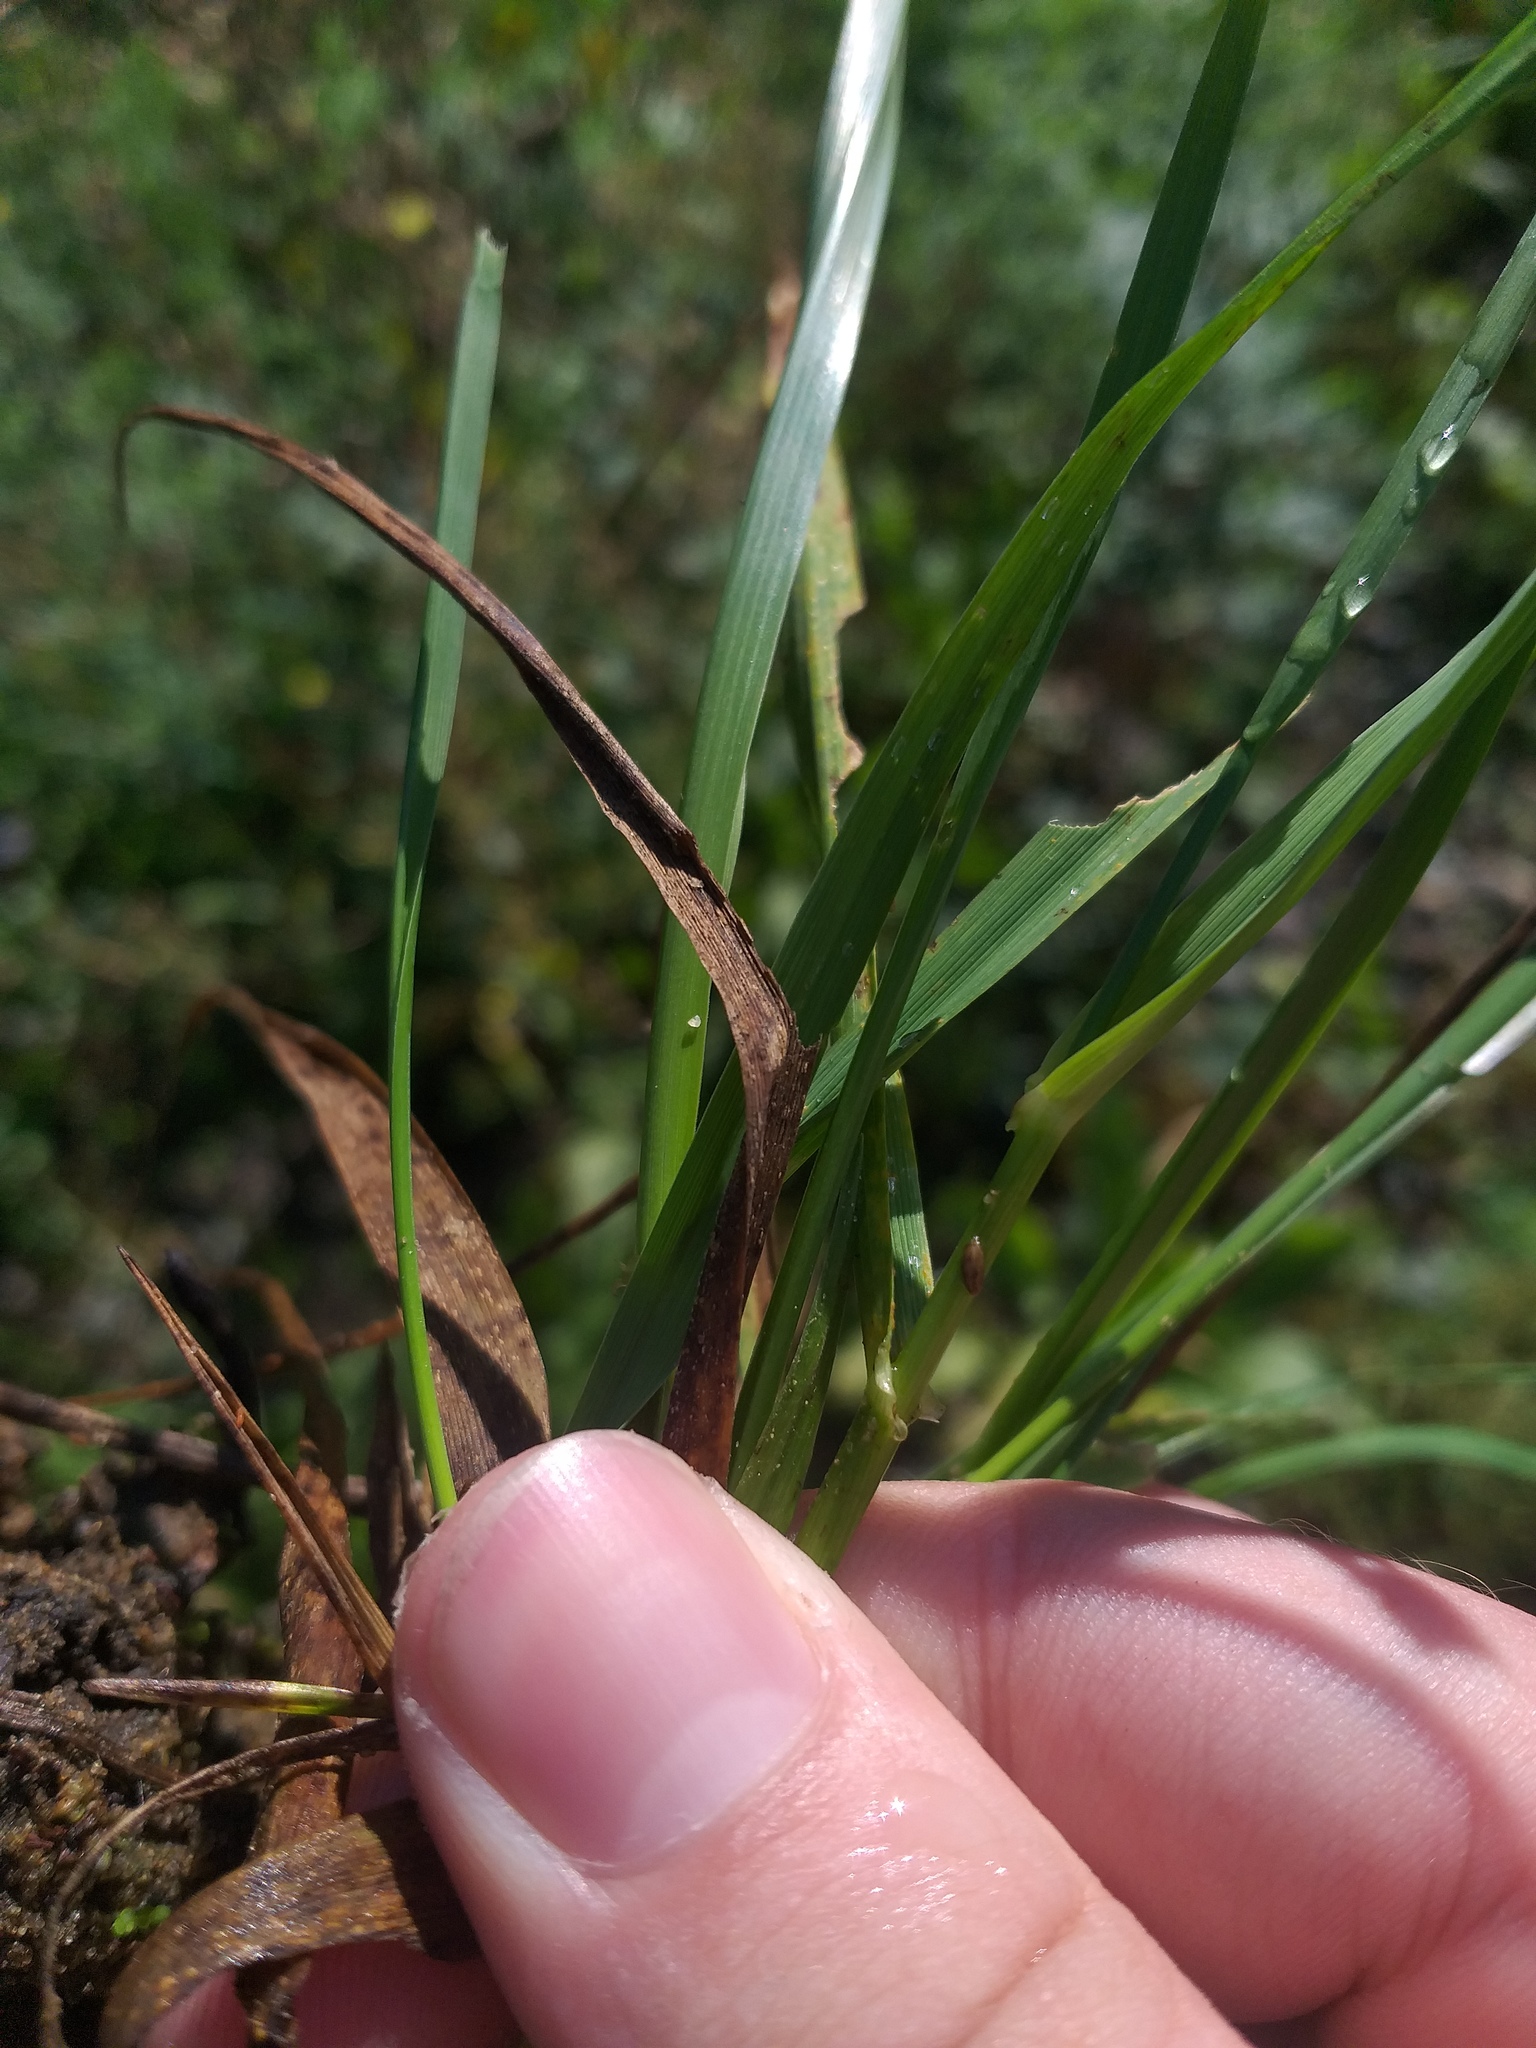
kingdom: Plantae
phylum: Tracheophyta
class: Liliopsida
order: Poales
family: Poaceae
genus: Lolium
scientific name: Lolium pratense
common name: Dover grass
